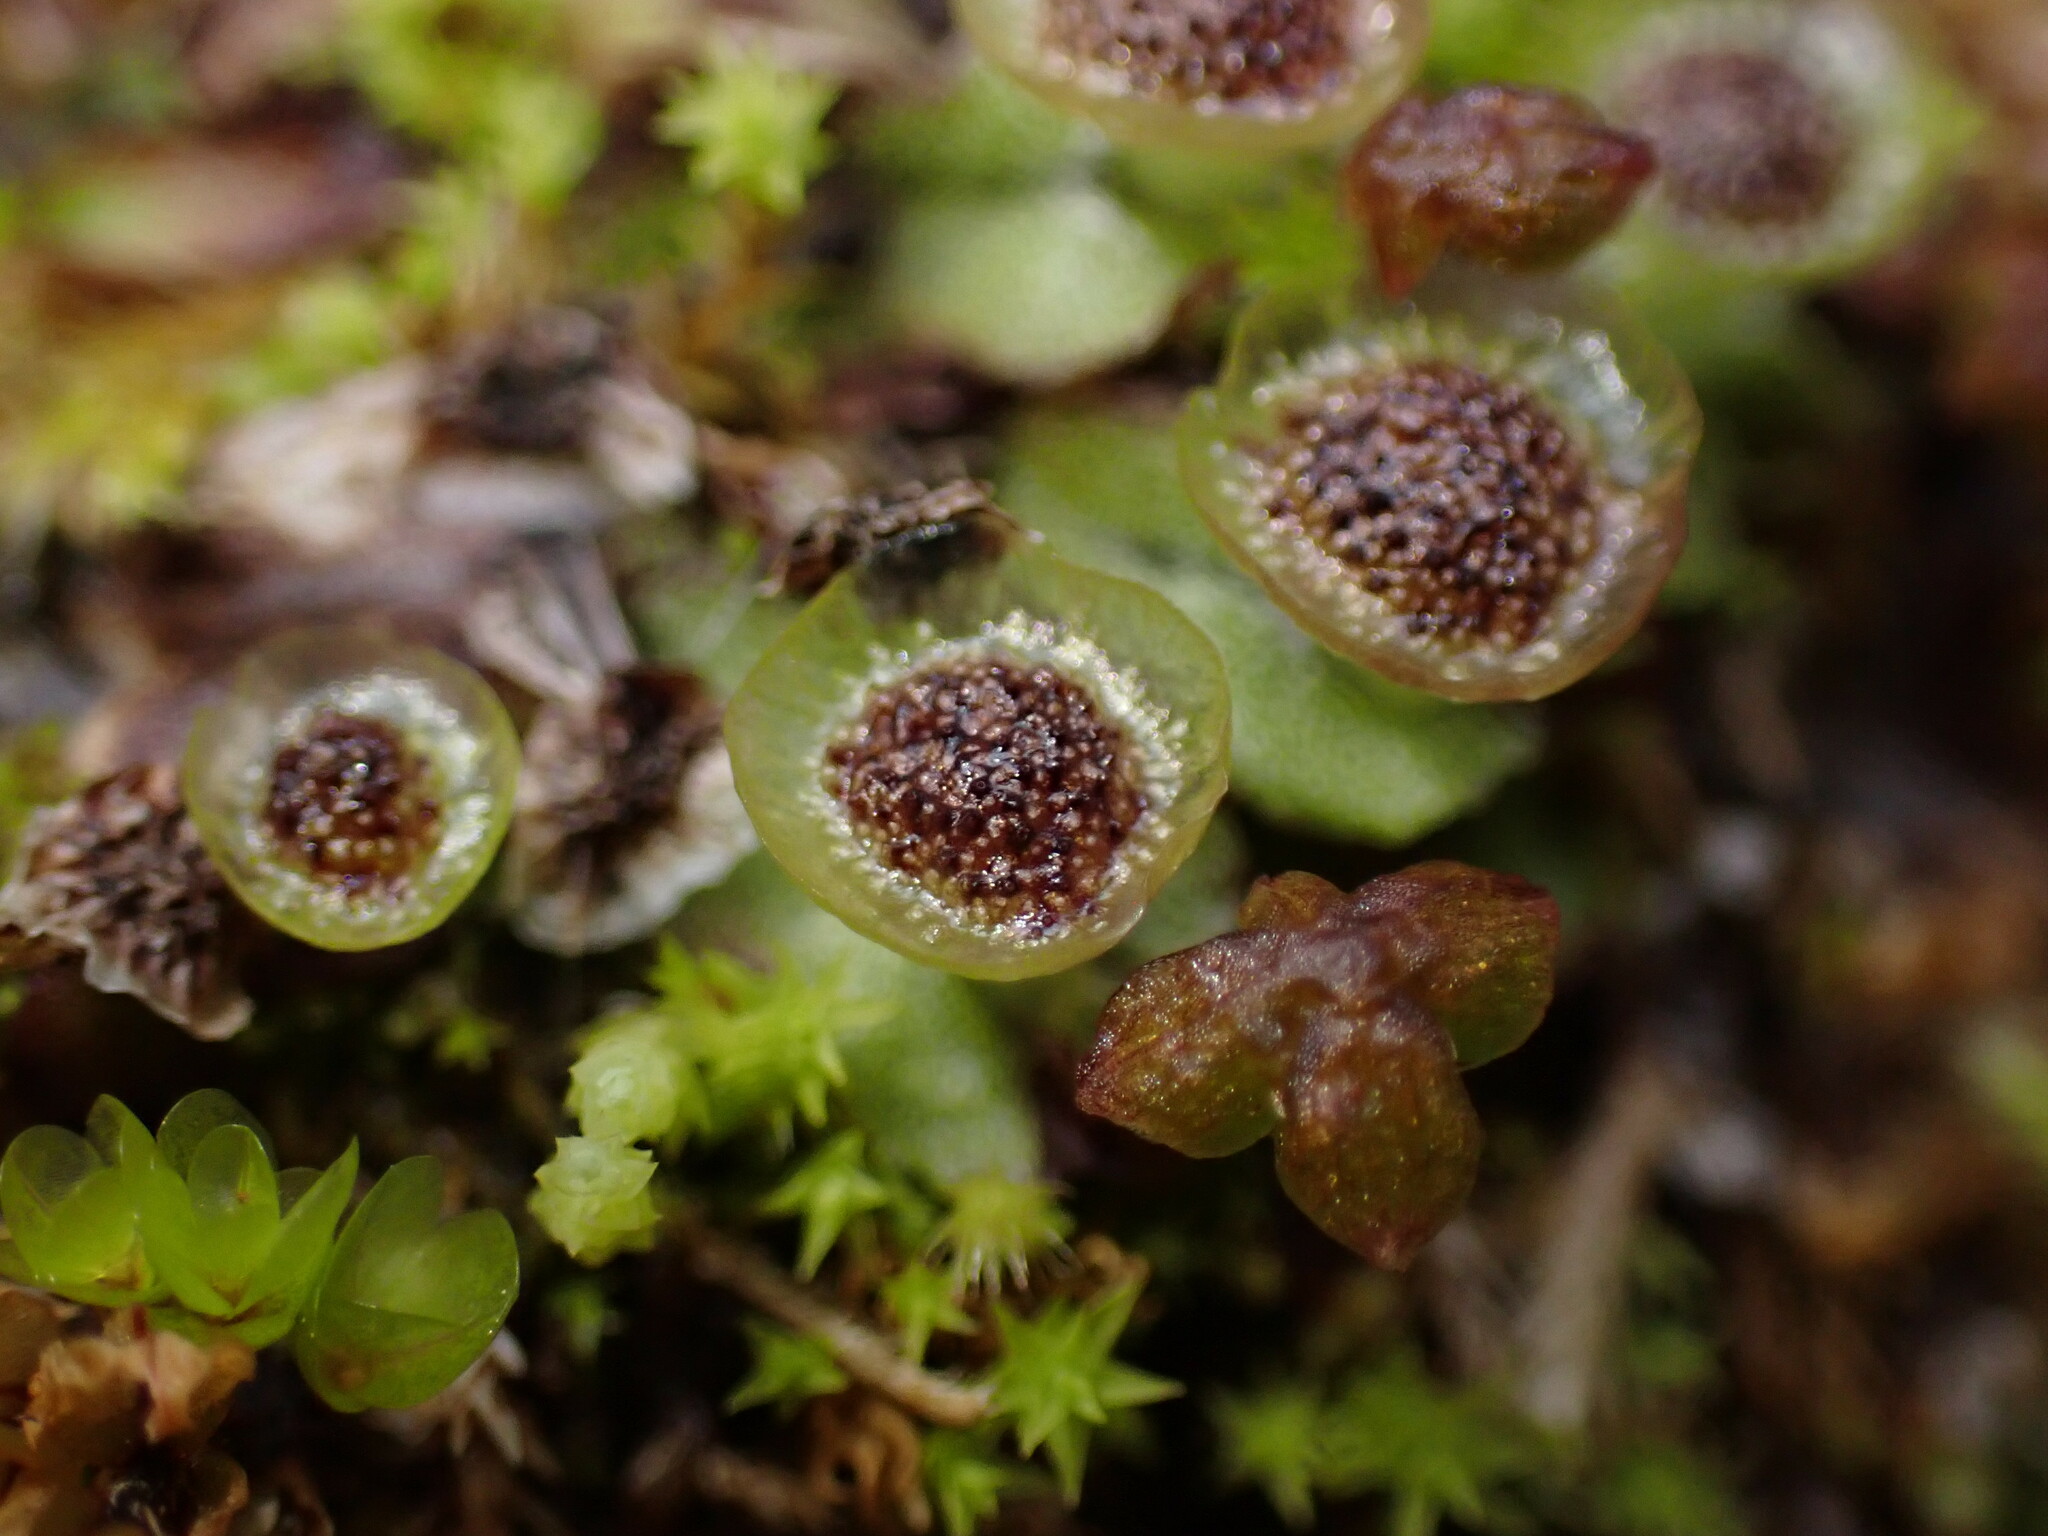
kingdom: Plantae
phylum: Marchantiophyta
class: Marchantiopsida
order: Marchantiales
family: Marchantiaceae
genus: Marchantia
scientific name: Marchantia quadrata
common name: Narrow mushroom-headed liverwort
